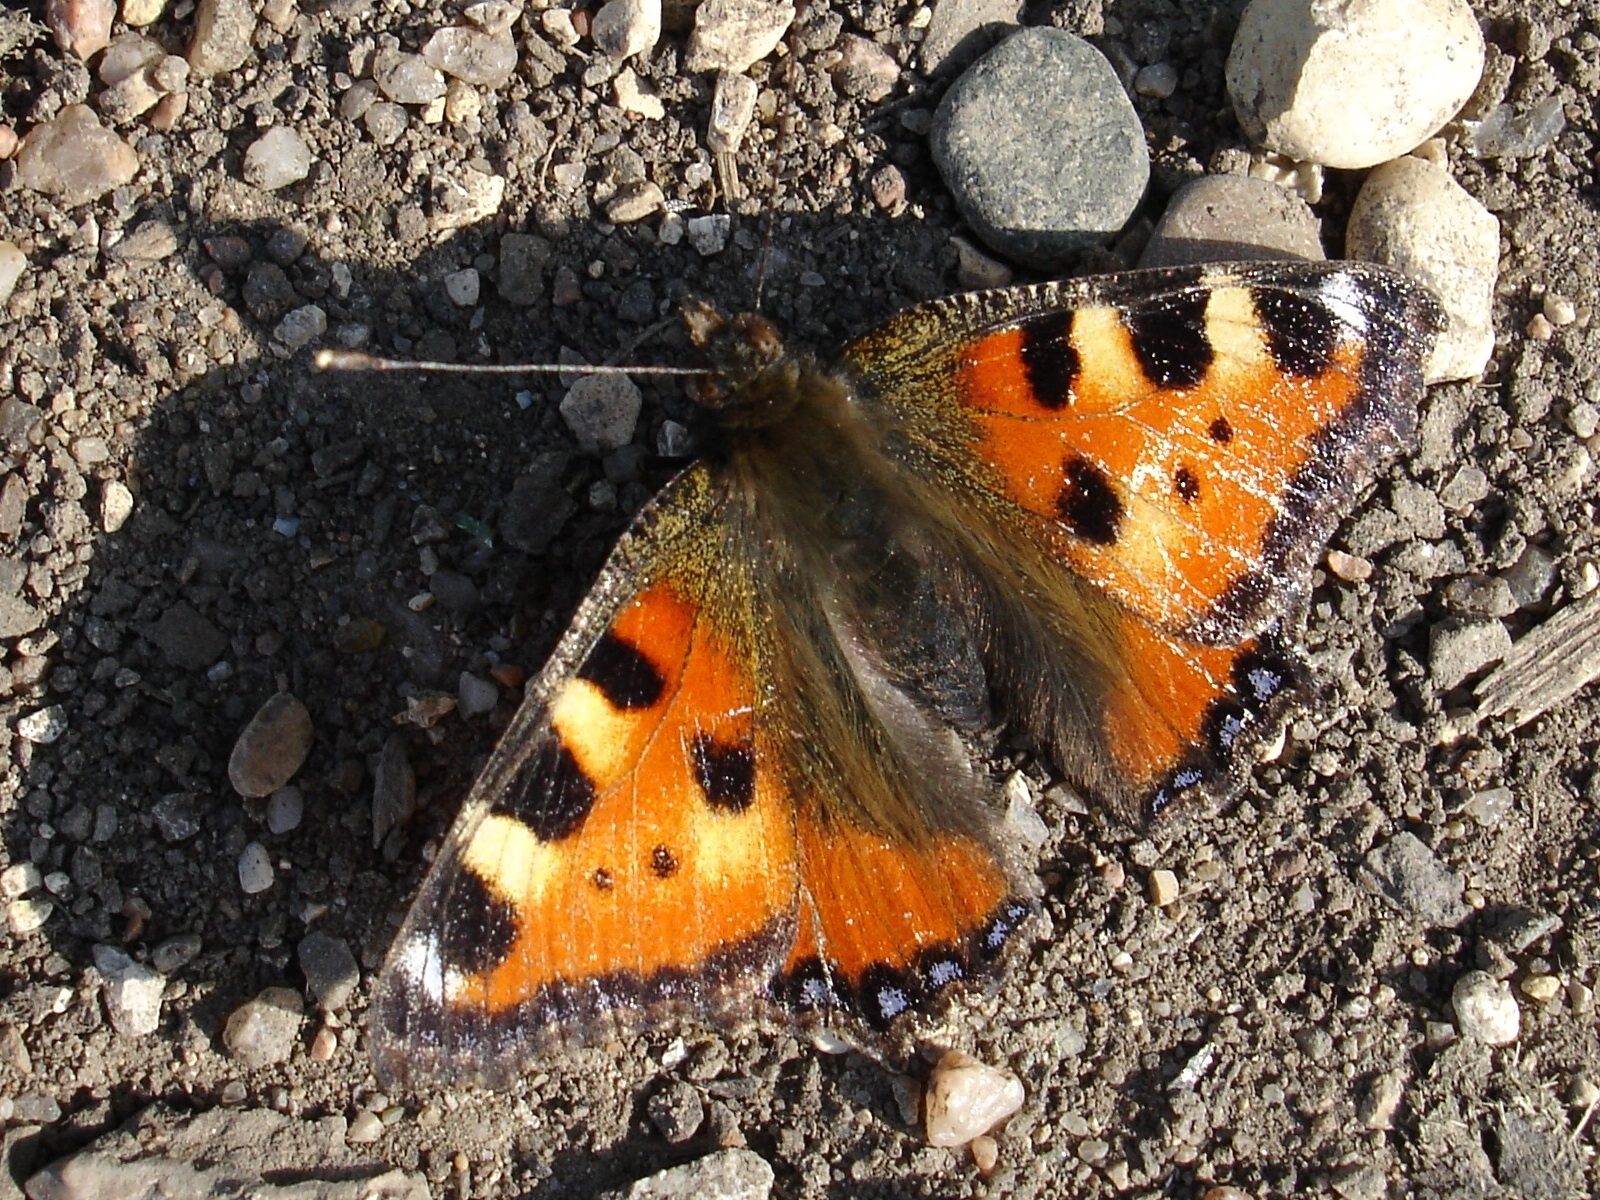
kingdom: Animalia
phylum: Arthropoda
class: Insecta
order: Lepidoptera
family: Nymphalidae
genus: Aglais
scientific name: Aglais urticae
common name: Small tortoiseshell
